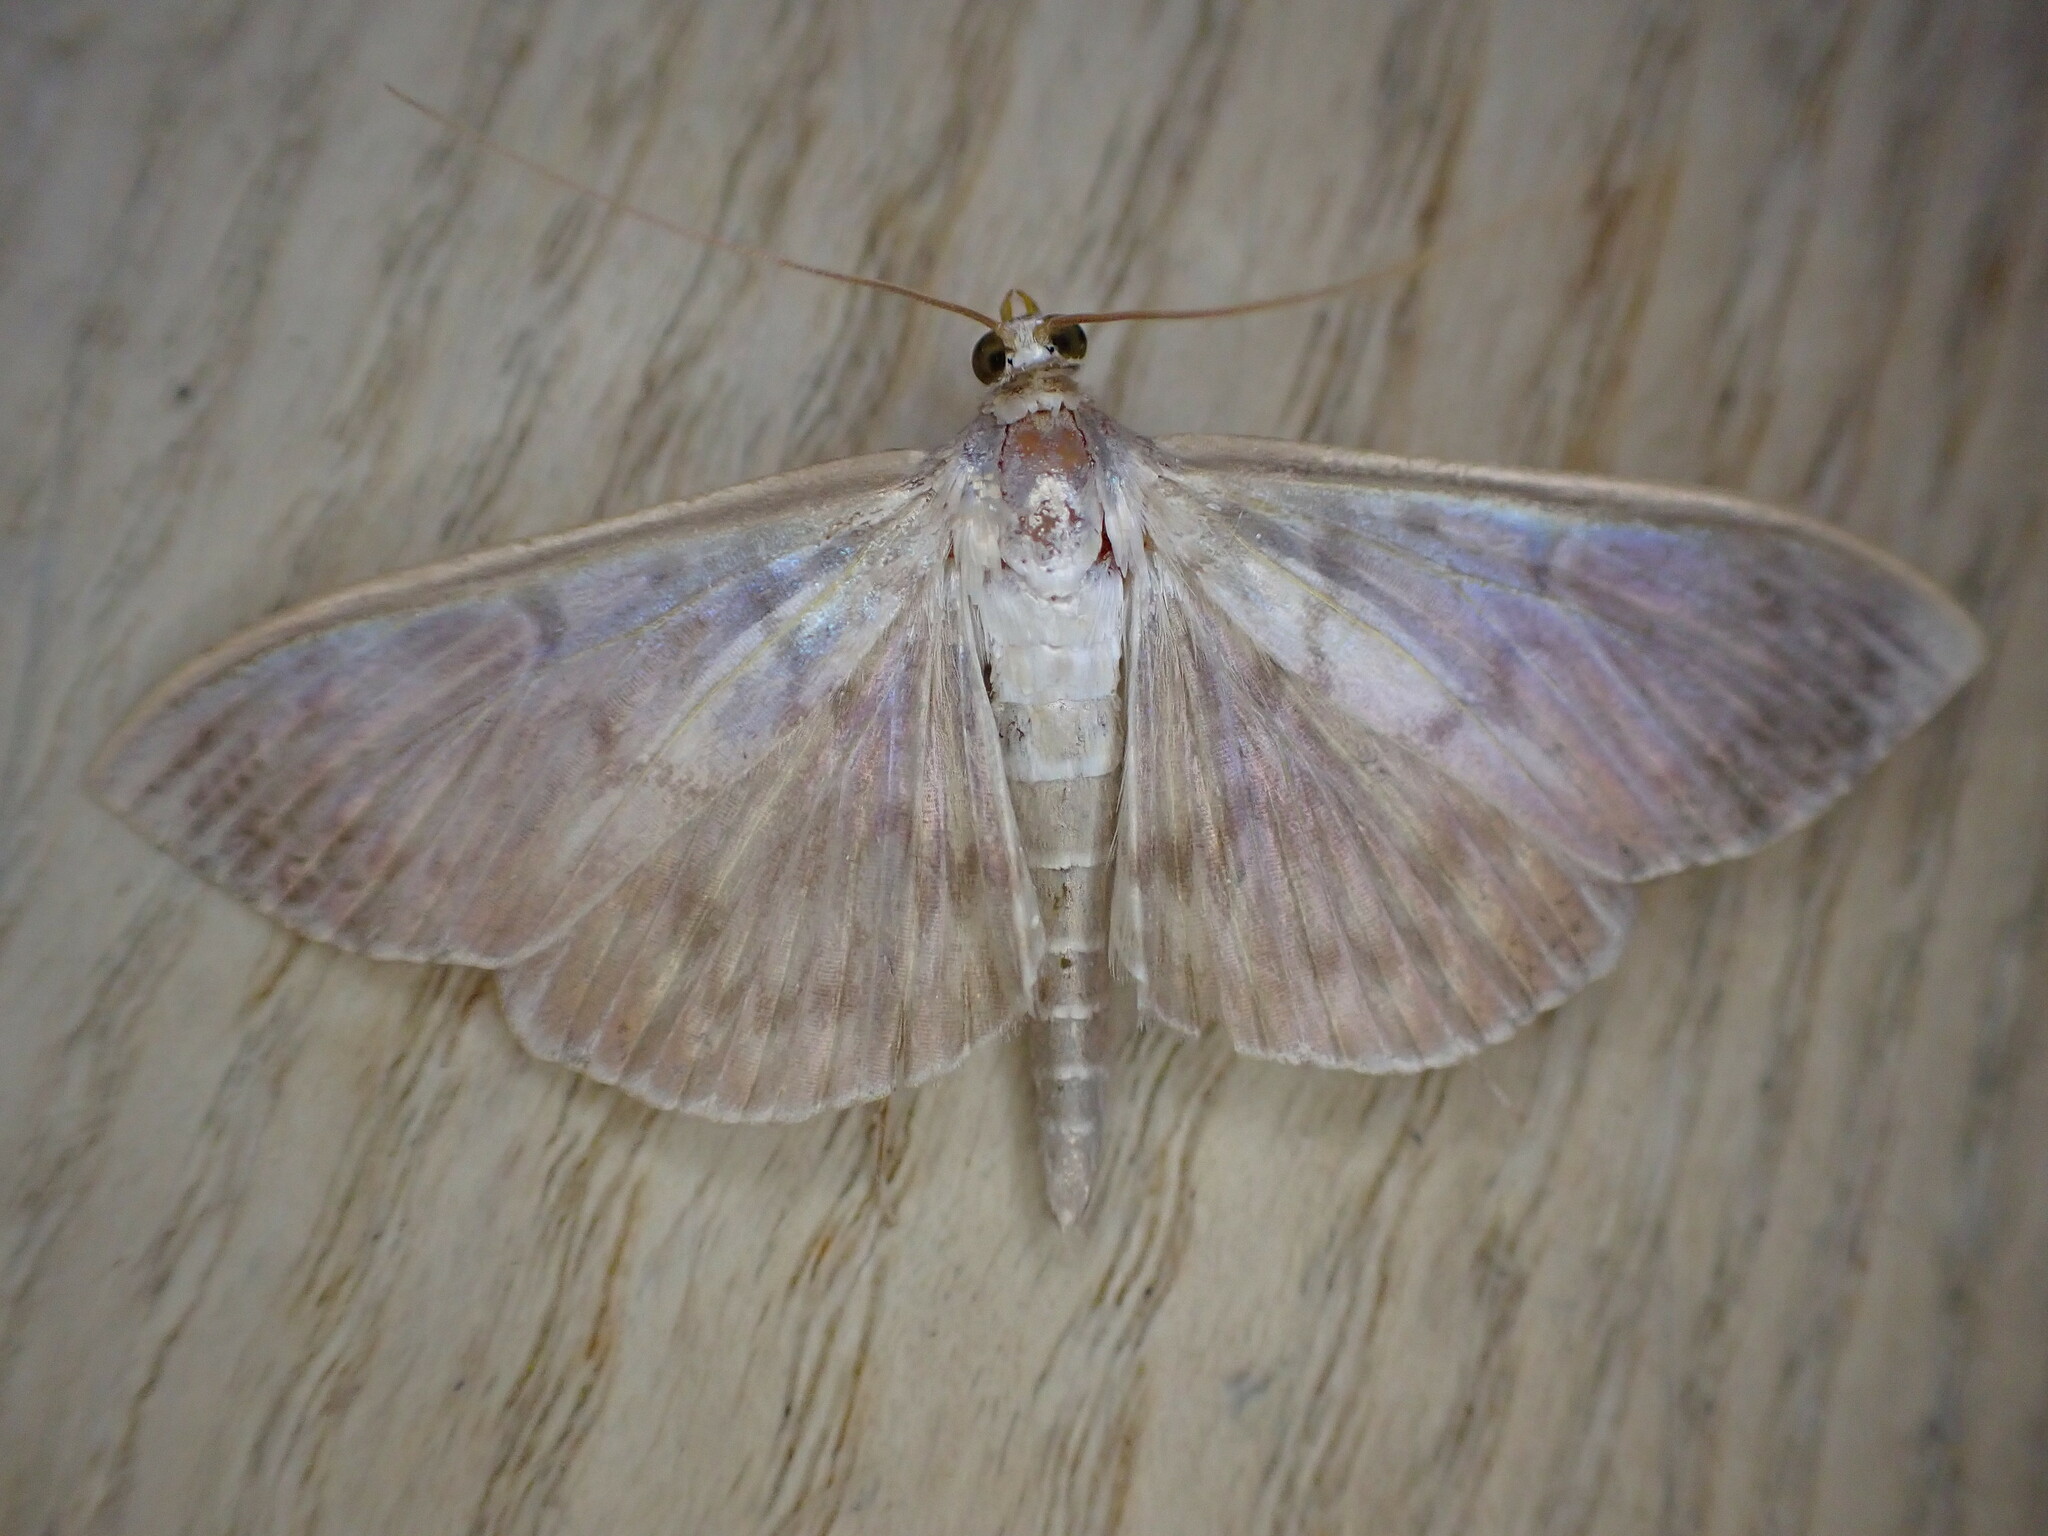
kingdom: Animalia
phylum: Arthropoda
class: Insecta
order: Lepidoptera
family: Crambidae
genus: Patania
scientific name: Patania ruralis
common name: Mother of pearl
